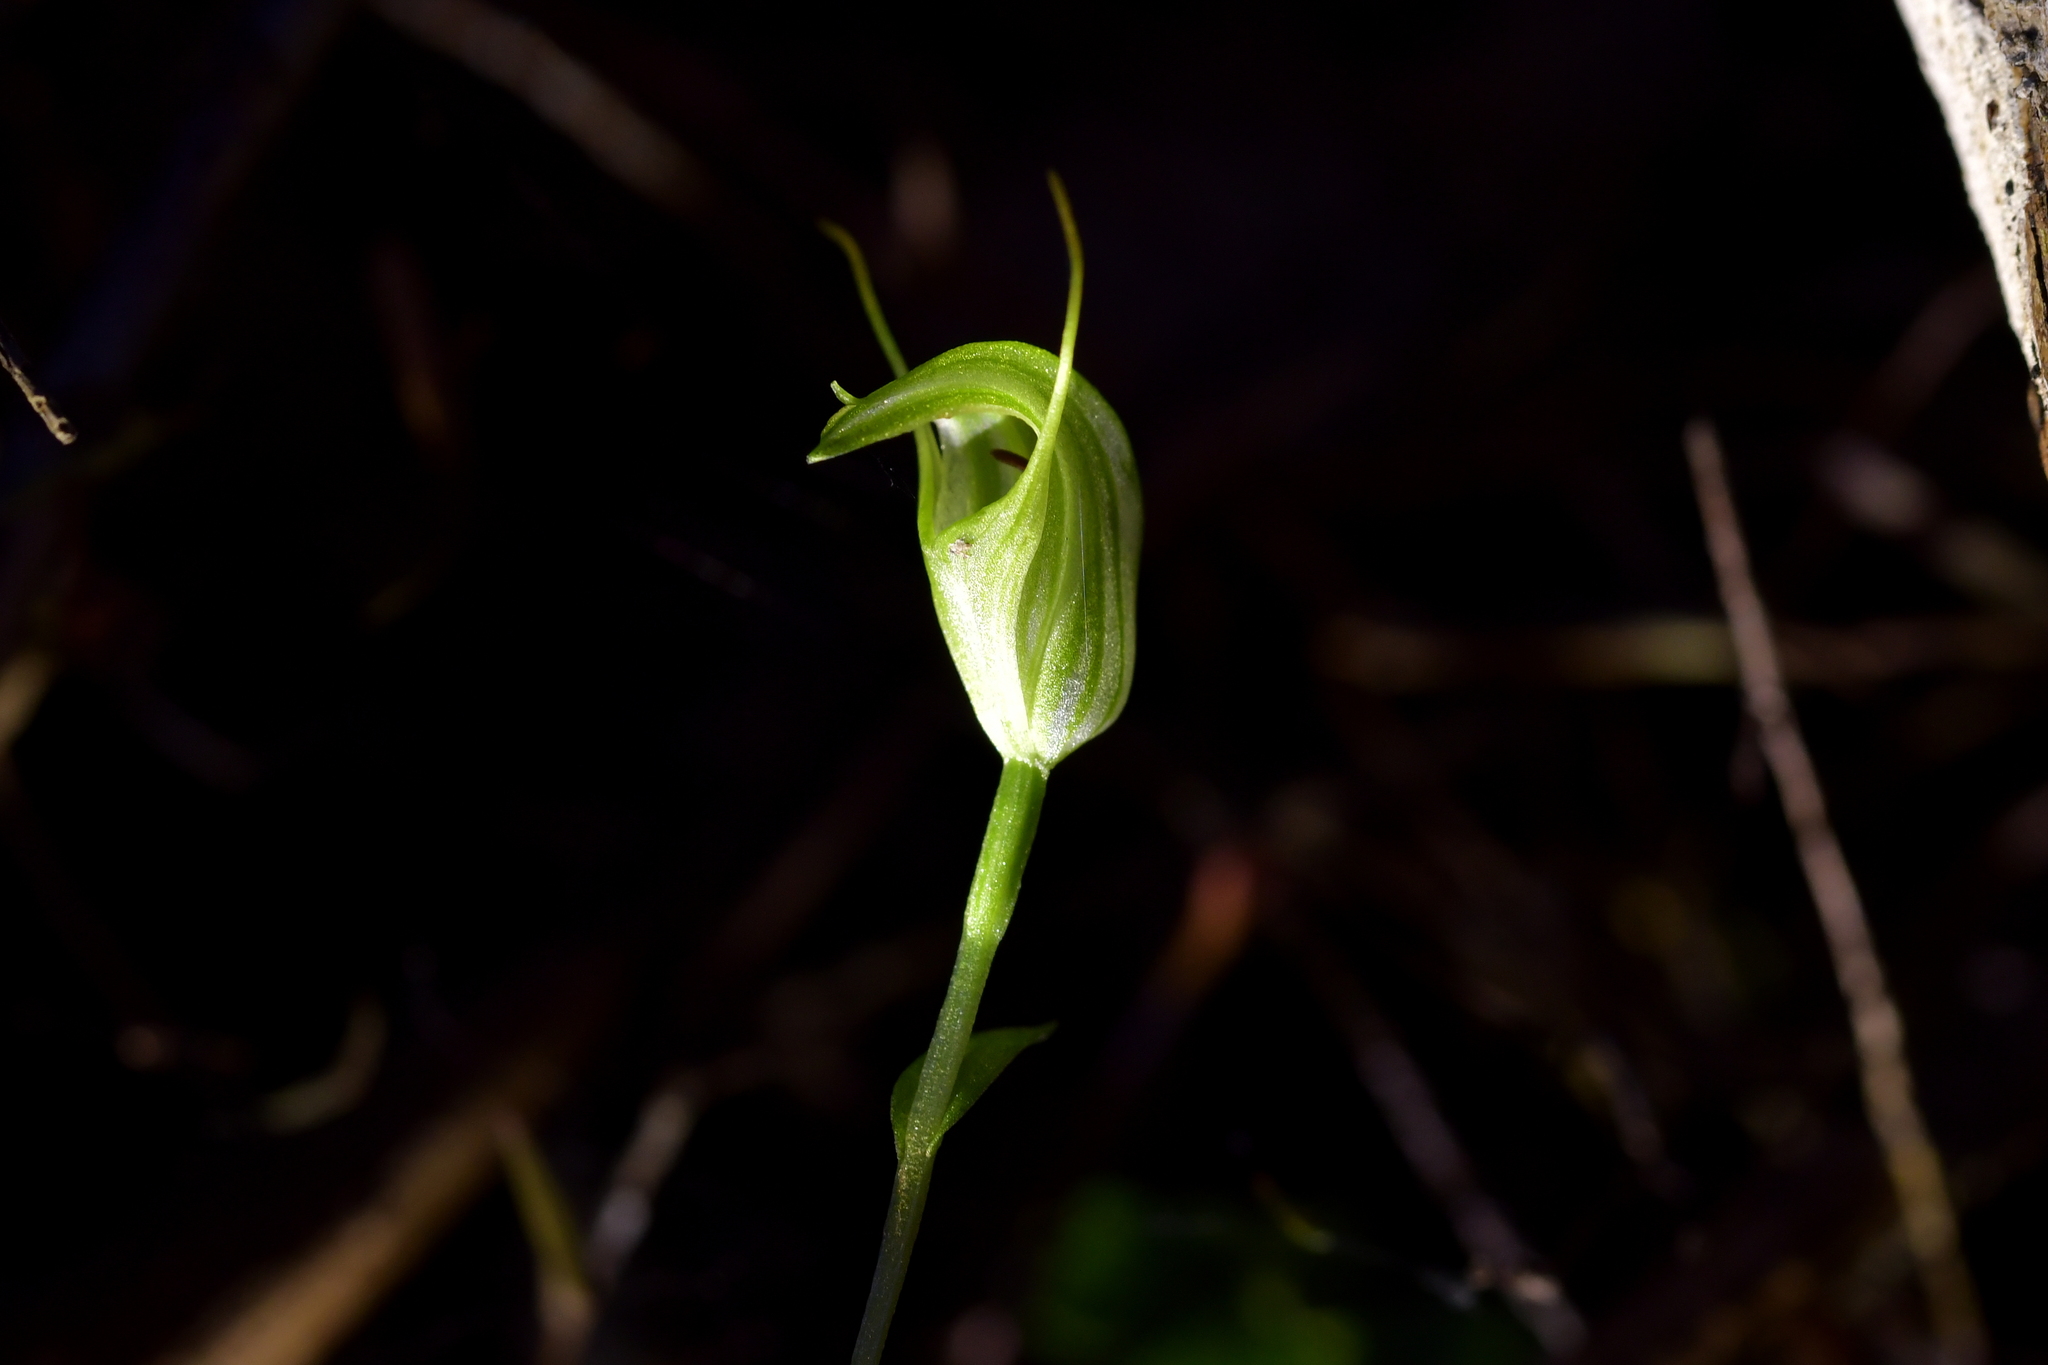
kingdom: Plantae
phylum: Tracheophyta
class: Liliopsida
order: Asparagales
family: Orchidaceae
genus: Pterostylis
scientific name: Pterostylis trullifolia
